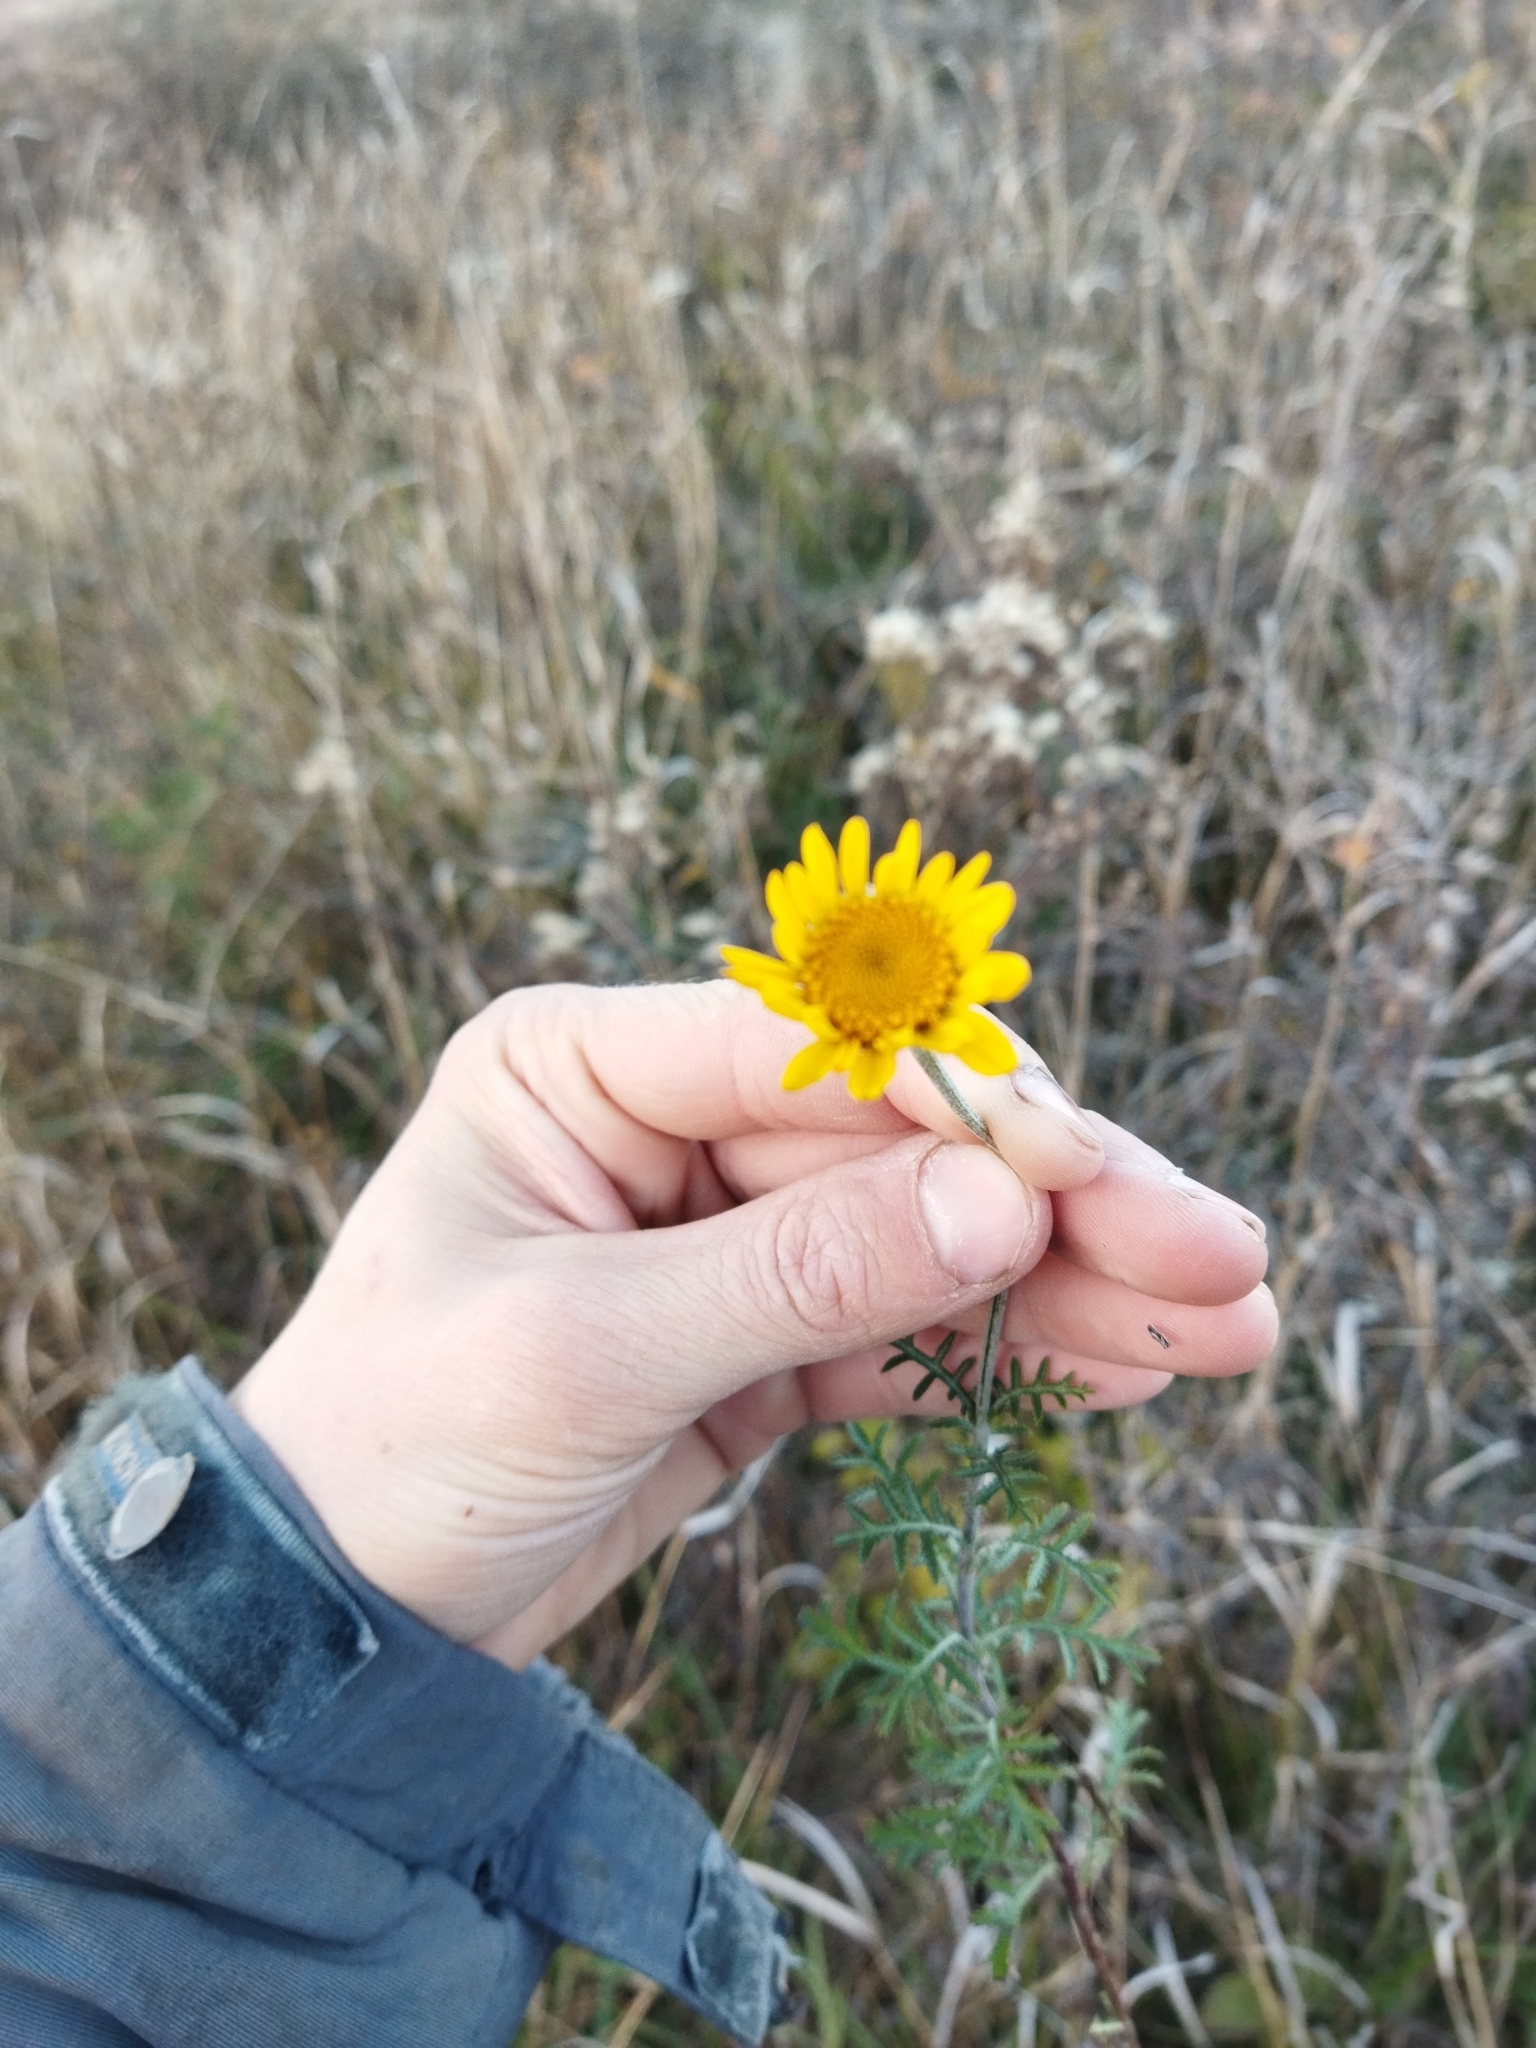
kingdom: Plantae
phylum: Tracheophyta
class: Magnoliopsida
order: Asterales
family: Asteraceae
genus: Cota
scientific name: Cota tinctoria
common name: Golden chamomile
